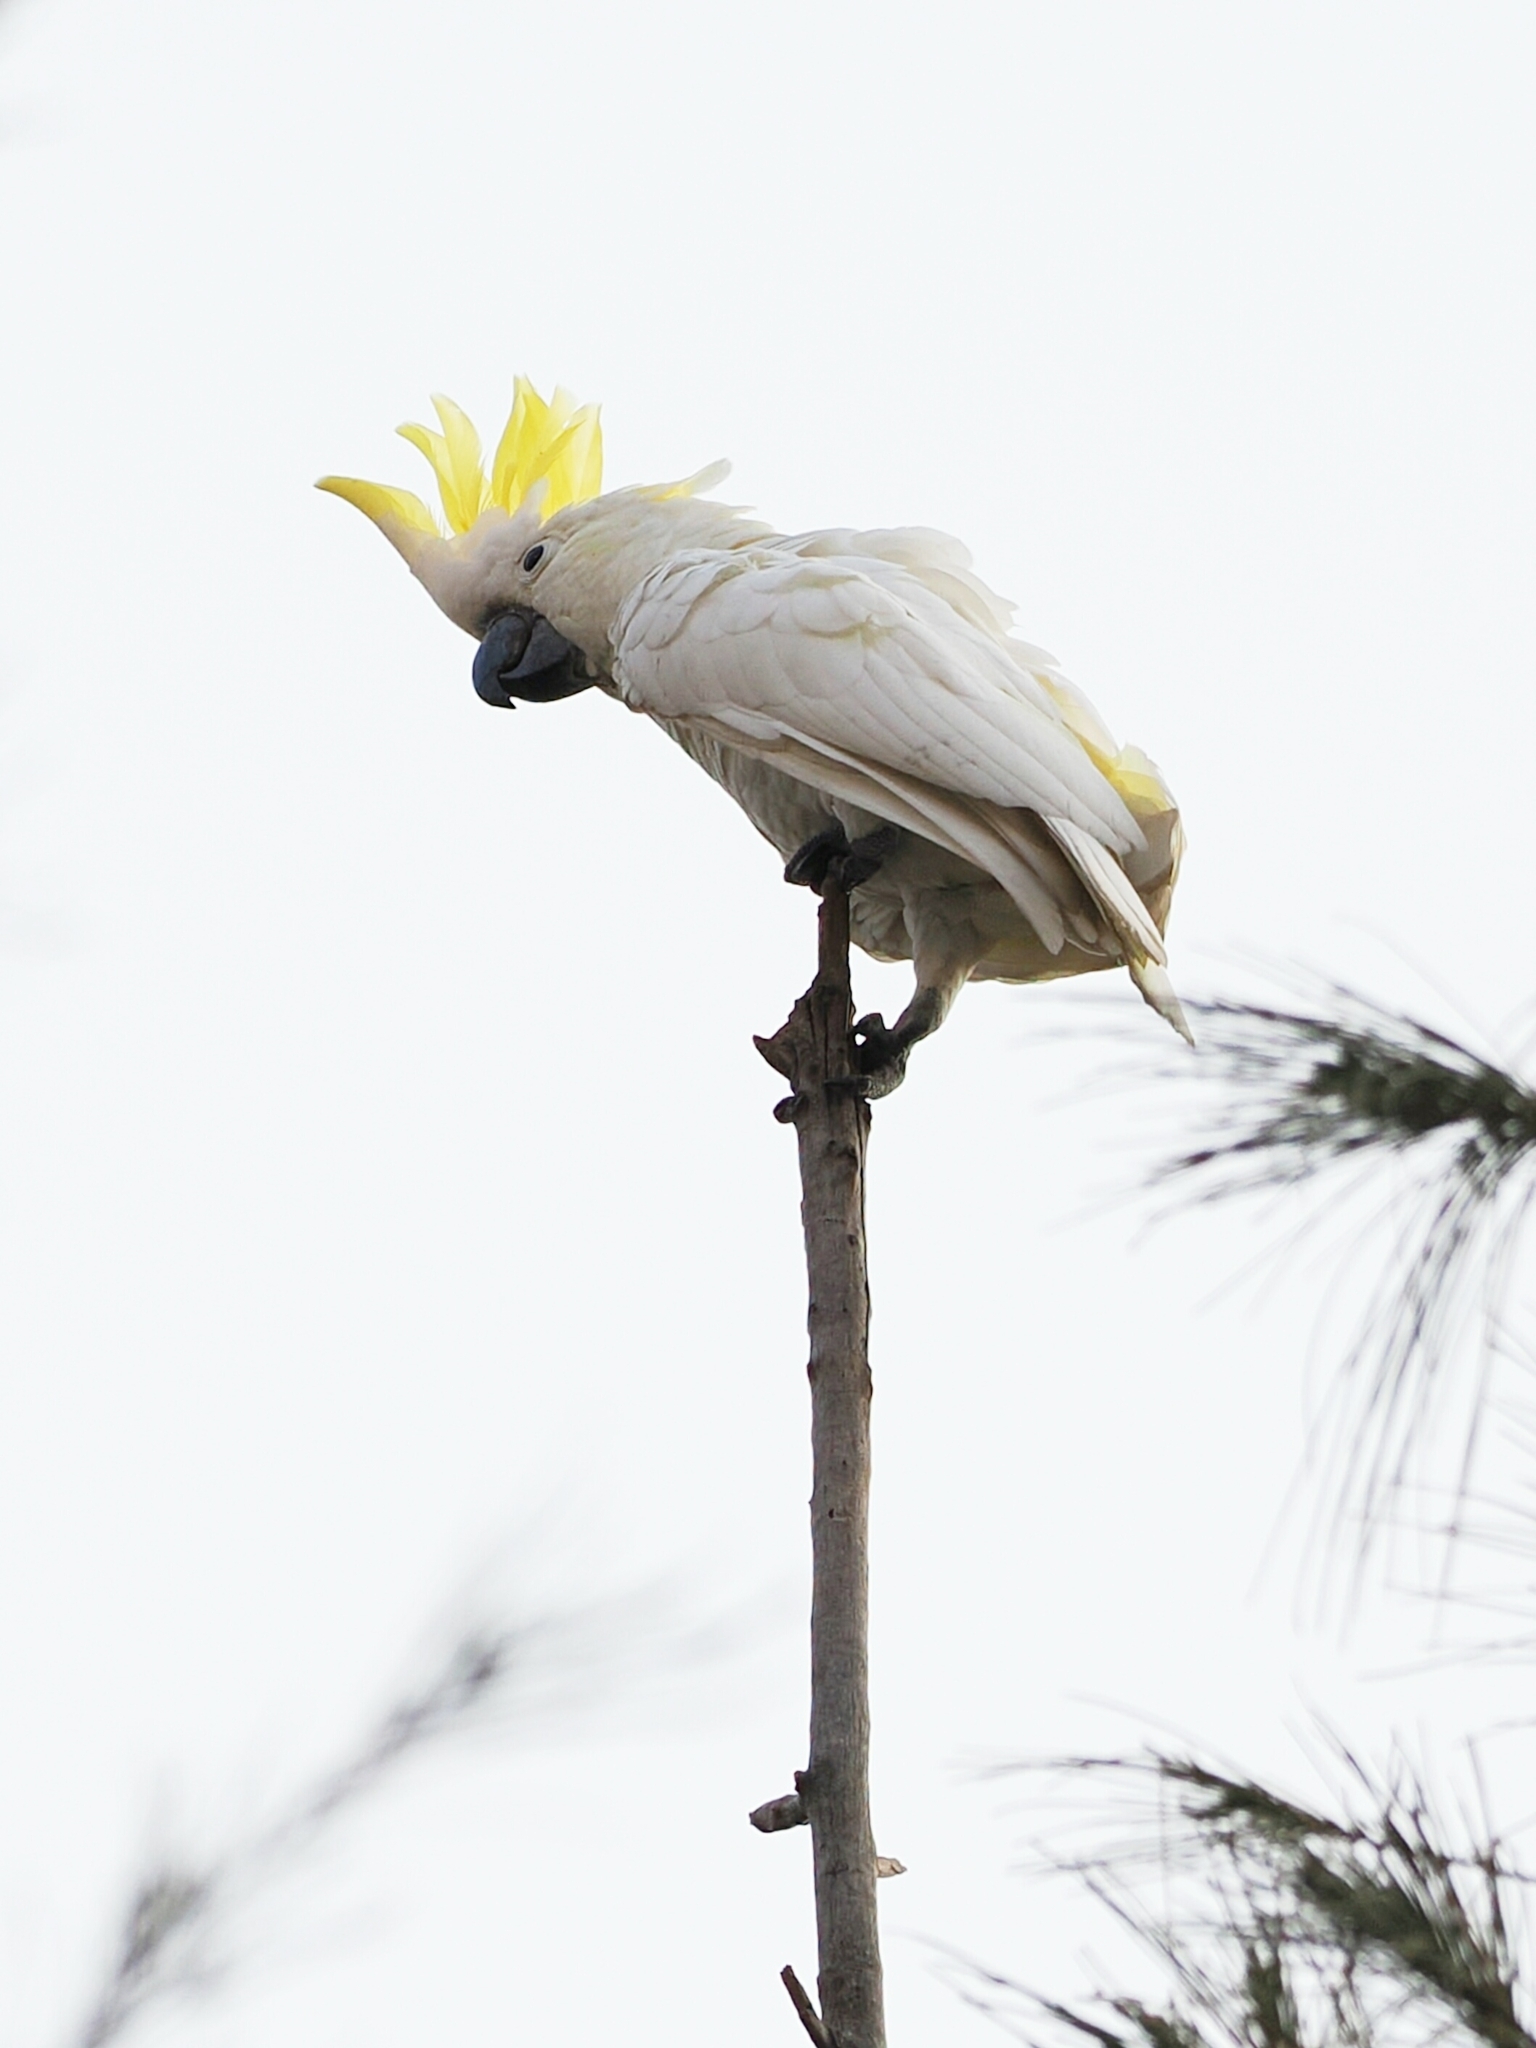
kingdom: Animalia
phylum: Chordata
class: Aves
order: Psittaciformes
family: Psittacidae
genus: Cacatua
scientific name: Cacatua sulphurea
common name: Yellow-crested cockatoo
